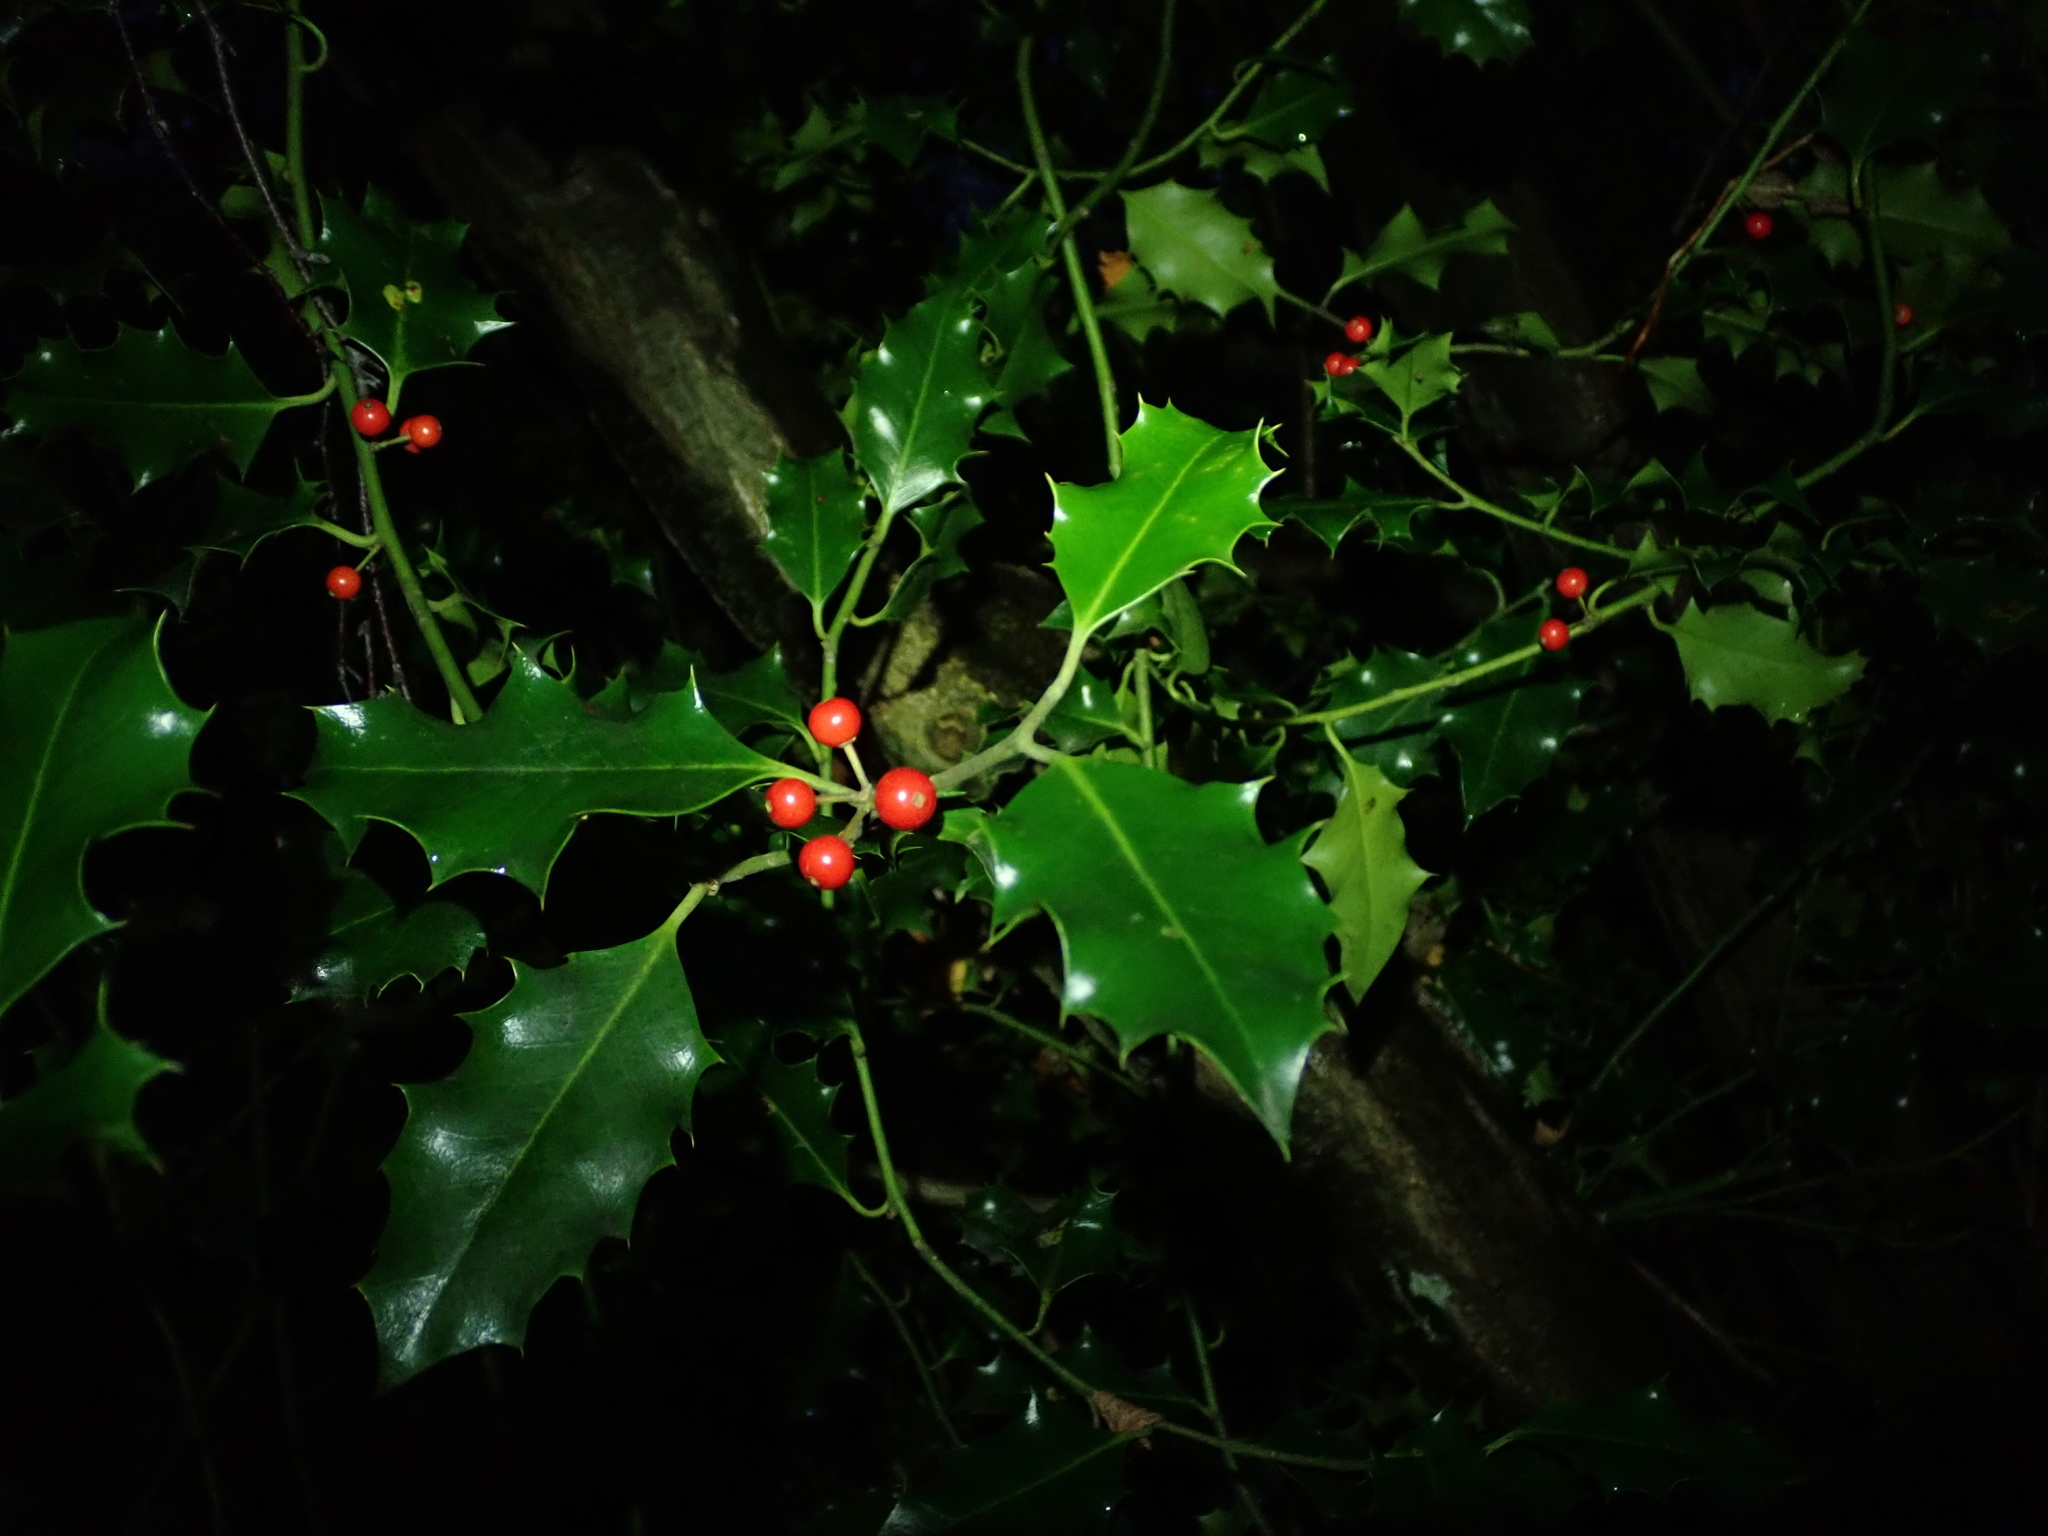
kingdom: Plantae
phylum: Tracheophyta
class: Magnoliopsida
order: Aquifoliales
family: Aquifoliaceae
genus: Ilex
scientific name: Ilex aquifolium
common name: English holly
